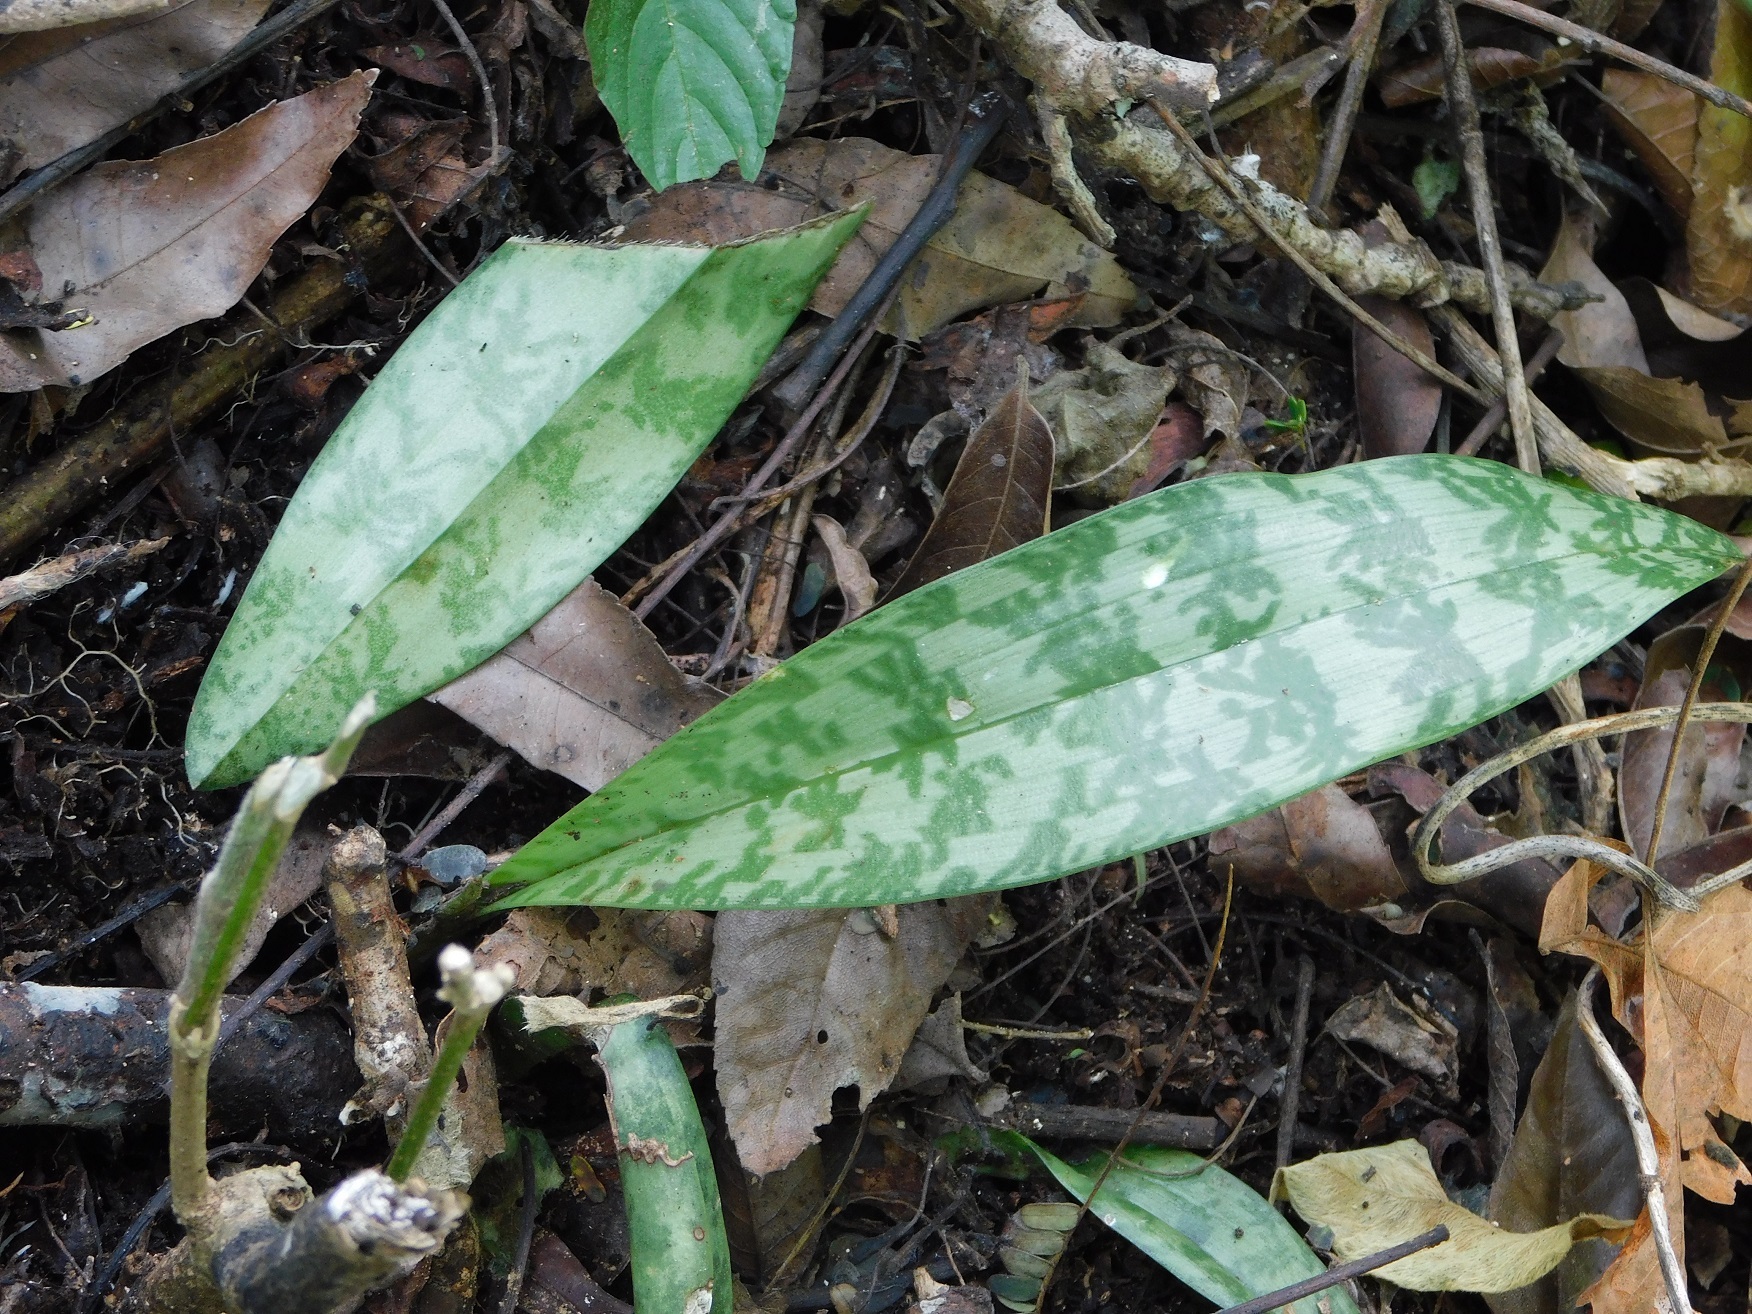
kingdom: Plantae
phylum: Tracheophyta
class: Liliopsida
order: Asparagales
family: Orchidaceae
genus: Eulophia
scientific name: Eulophia maculata
